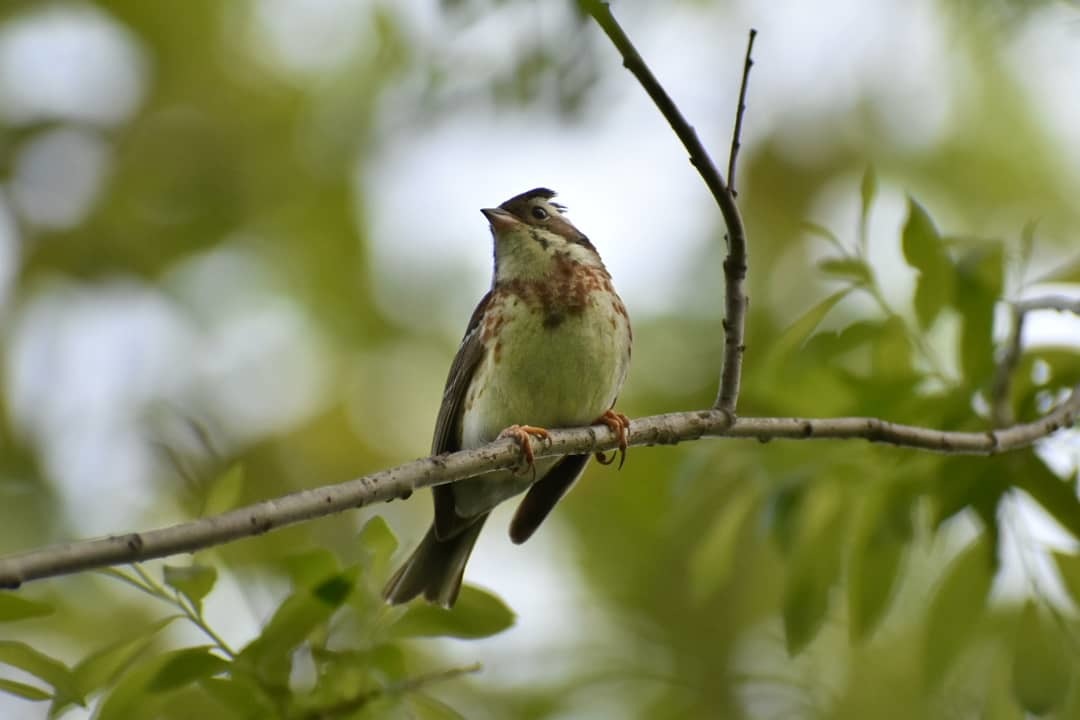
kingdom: Animalia
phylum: Chordata
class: Aves
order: Passeriformes
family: Emberizidae
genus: Emberiza
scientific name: Emberiza rustica
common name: Rustic bunting
